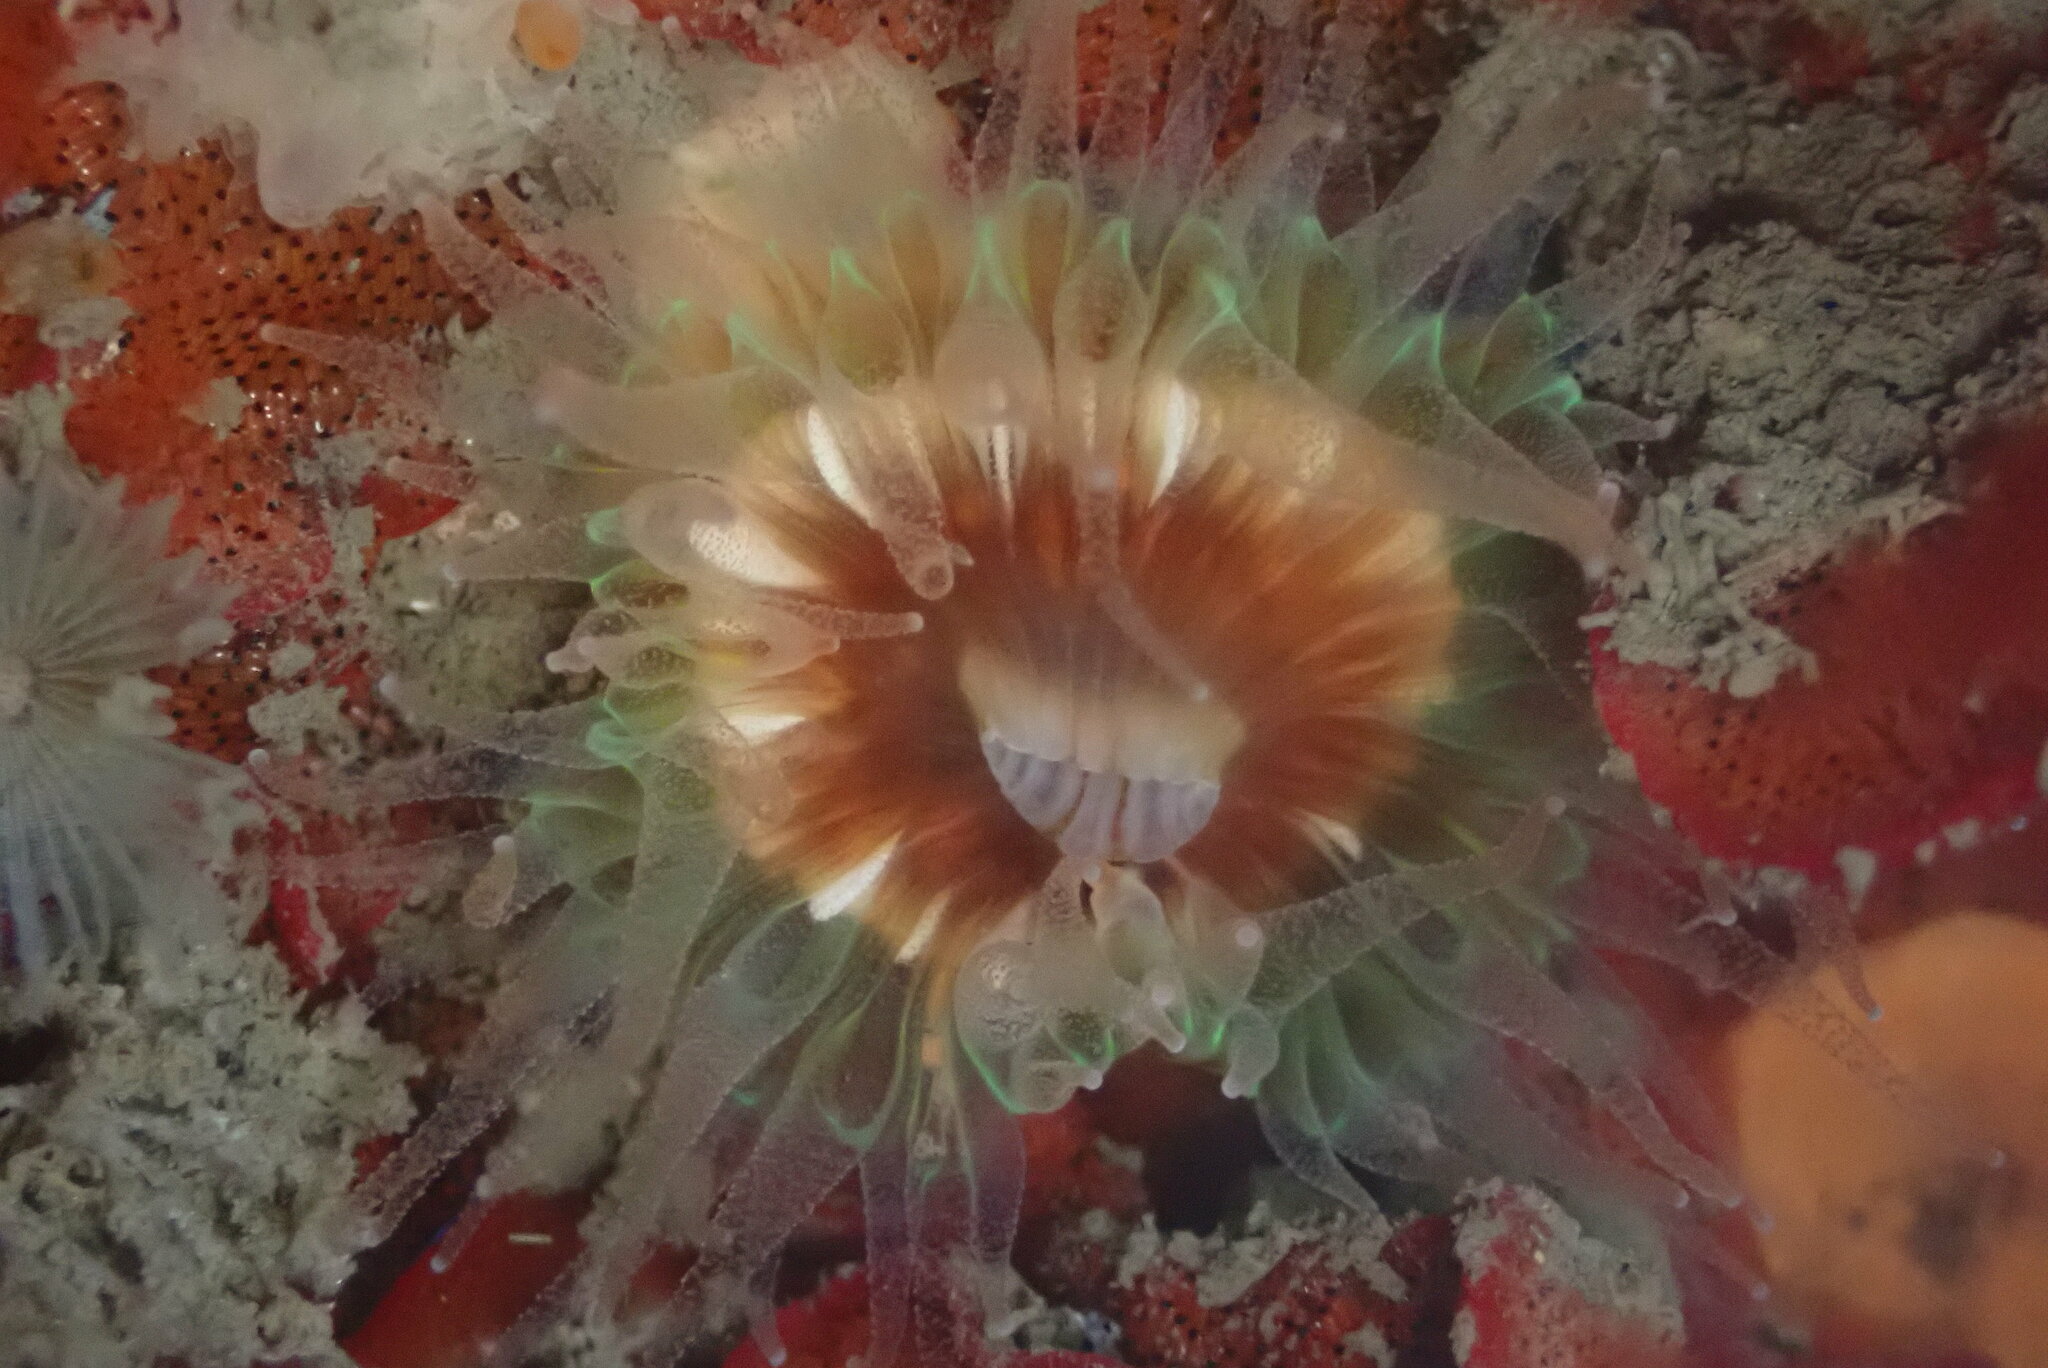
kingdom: Animalia
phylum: Cnidaria
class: Anthozoa
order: Scleractinia
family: Caryophylliidae
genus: Paracyathus
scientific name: Paracyathus stearnsii
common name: Brown stony coral
